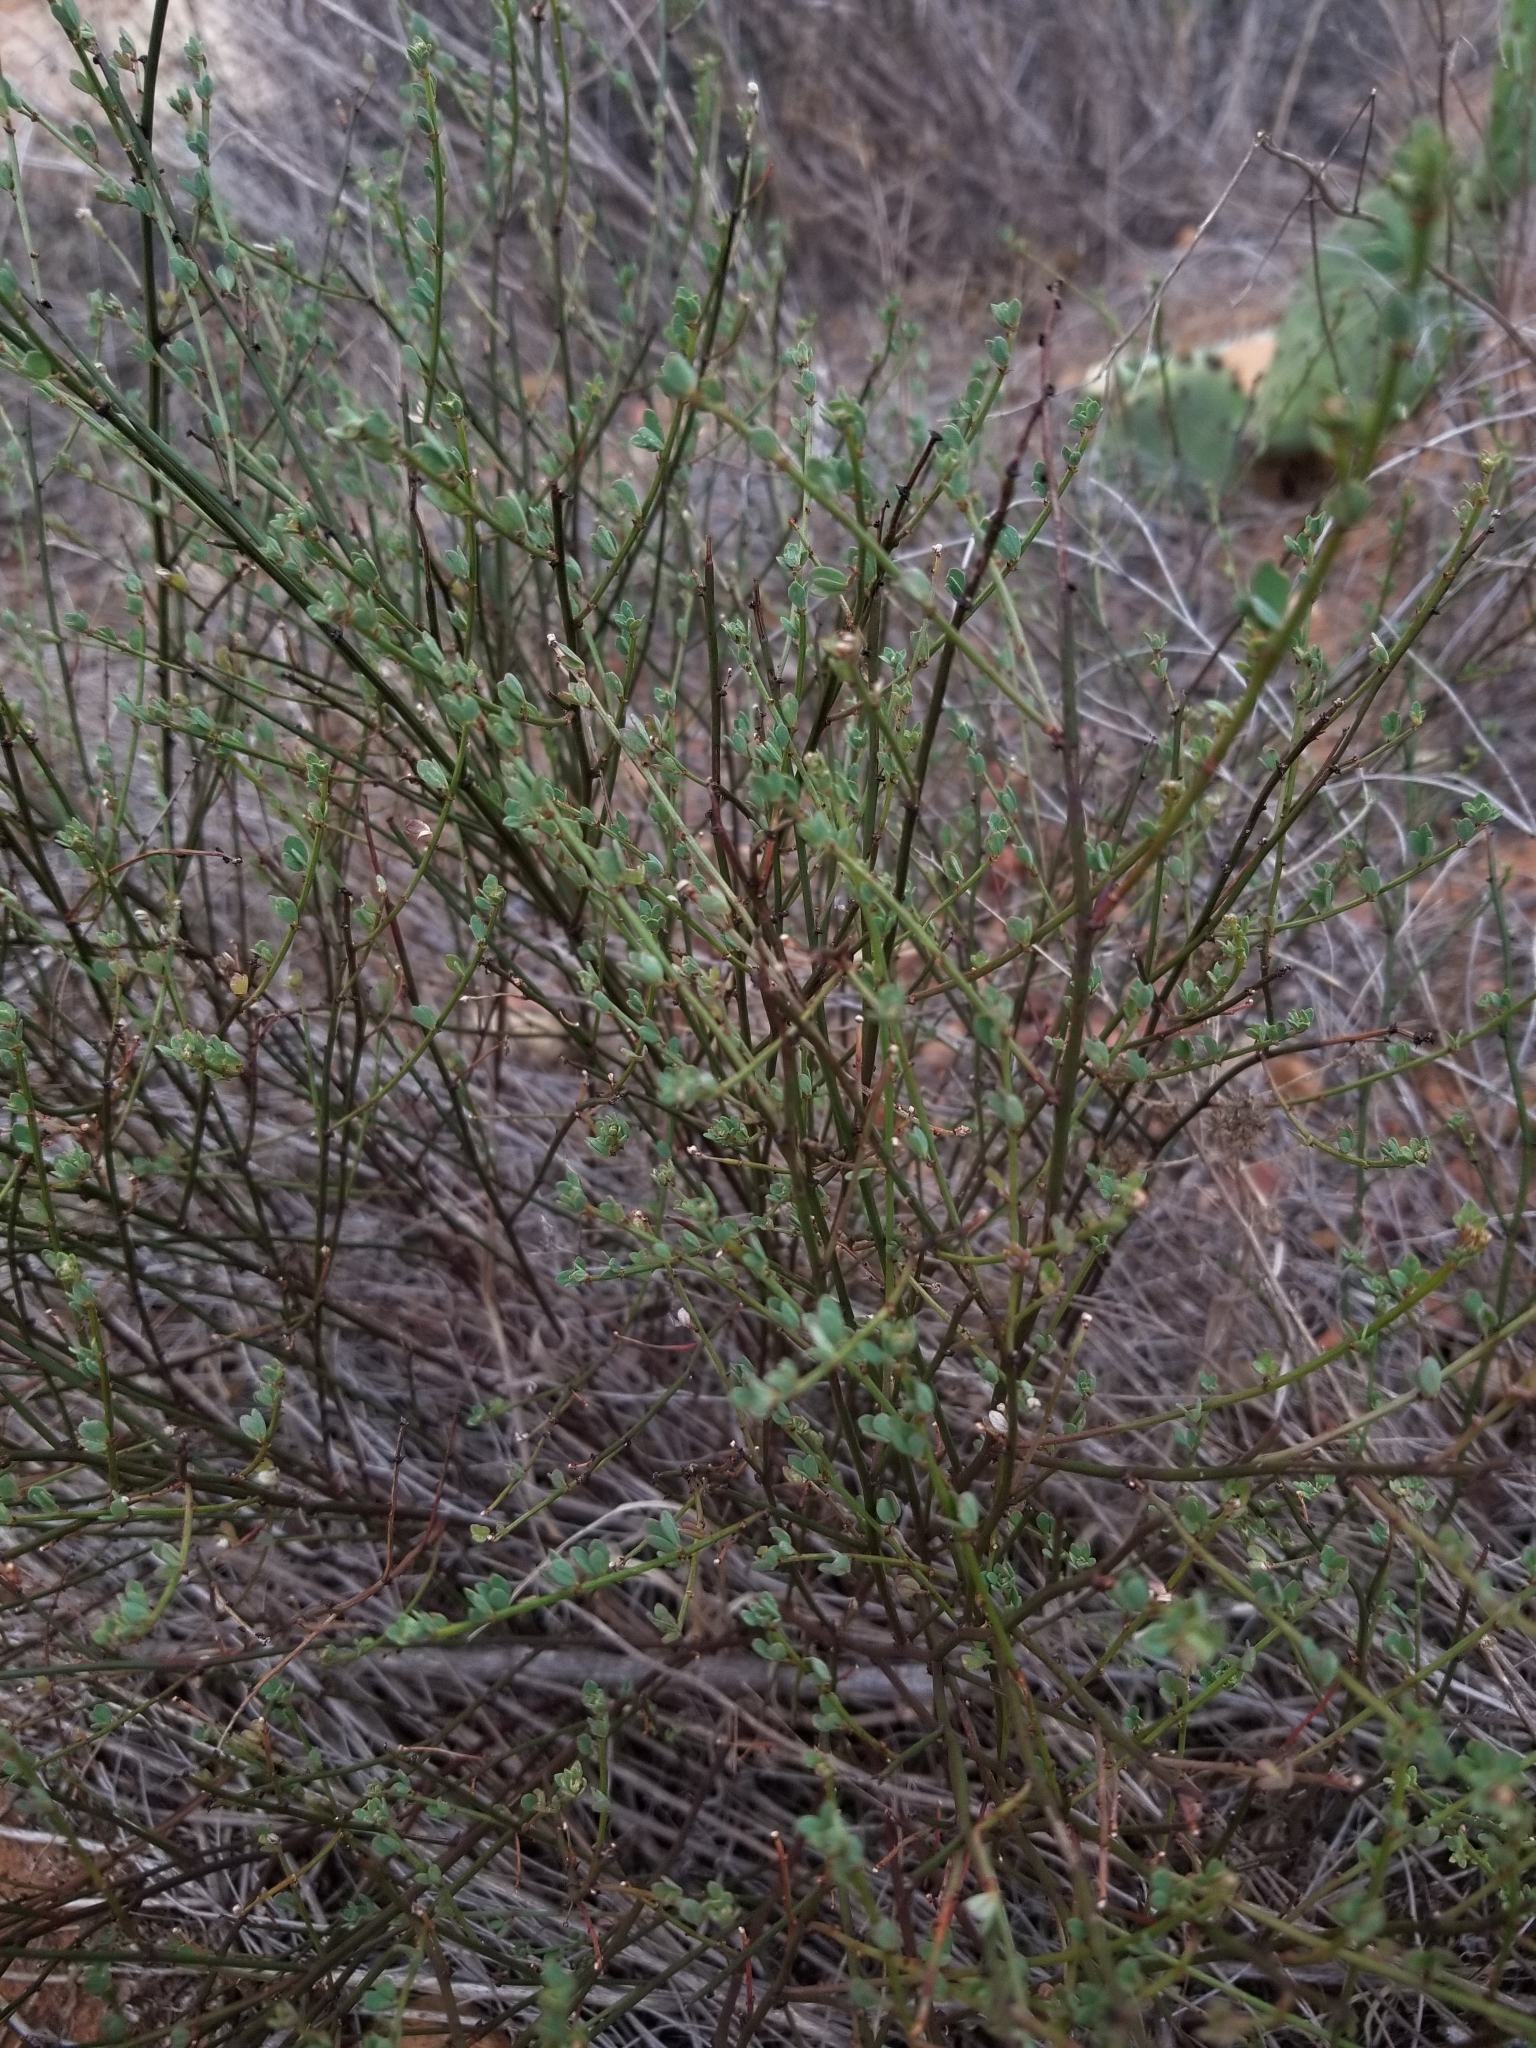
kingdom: Plantae
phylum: Tracheophyta
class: Magnoliopsida
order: Fabales
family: Fabaceae
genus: Acmispon
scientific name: Acmispon glaber
